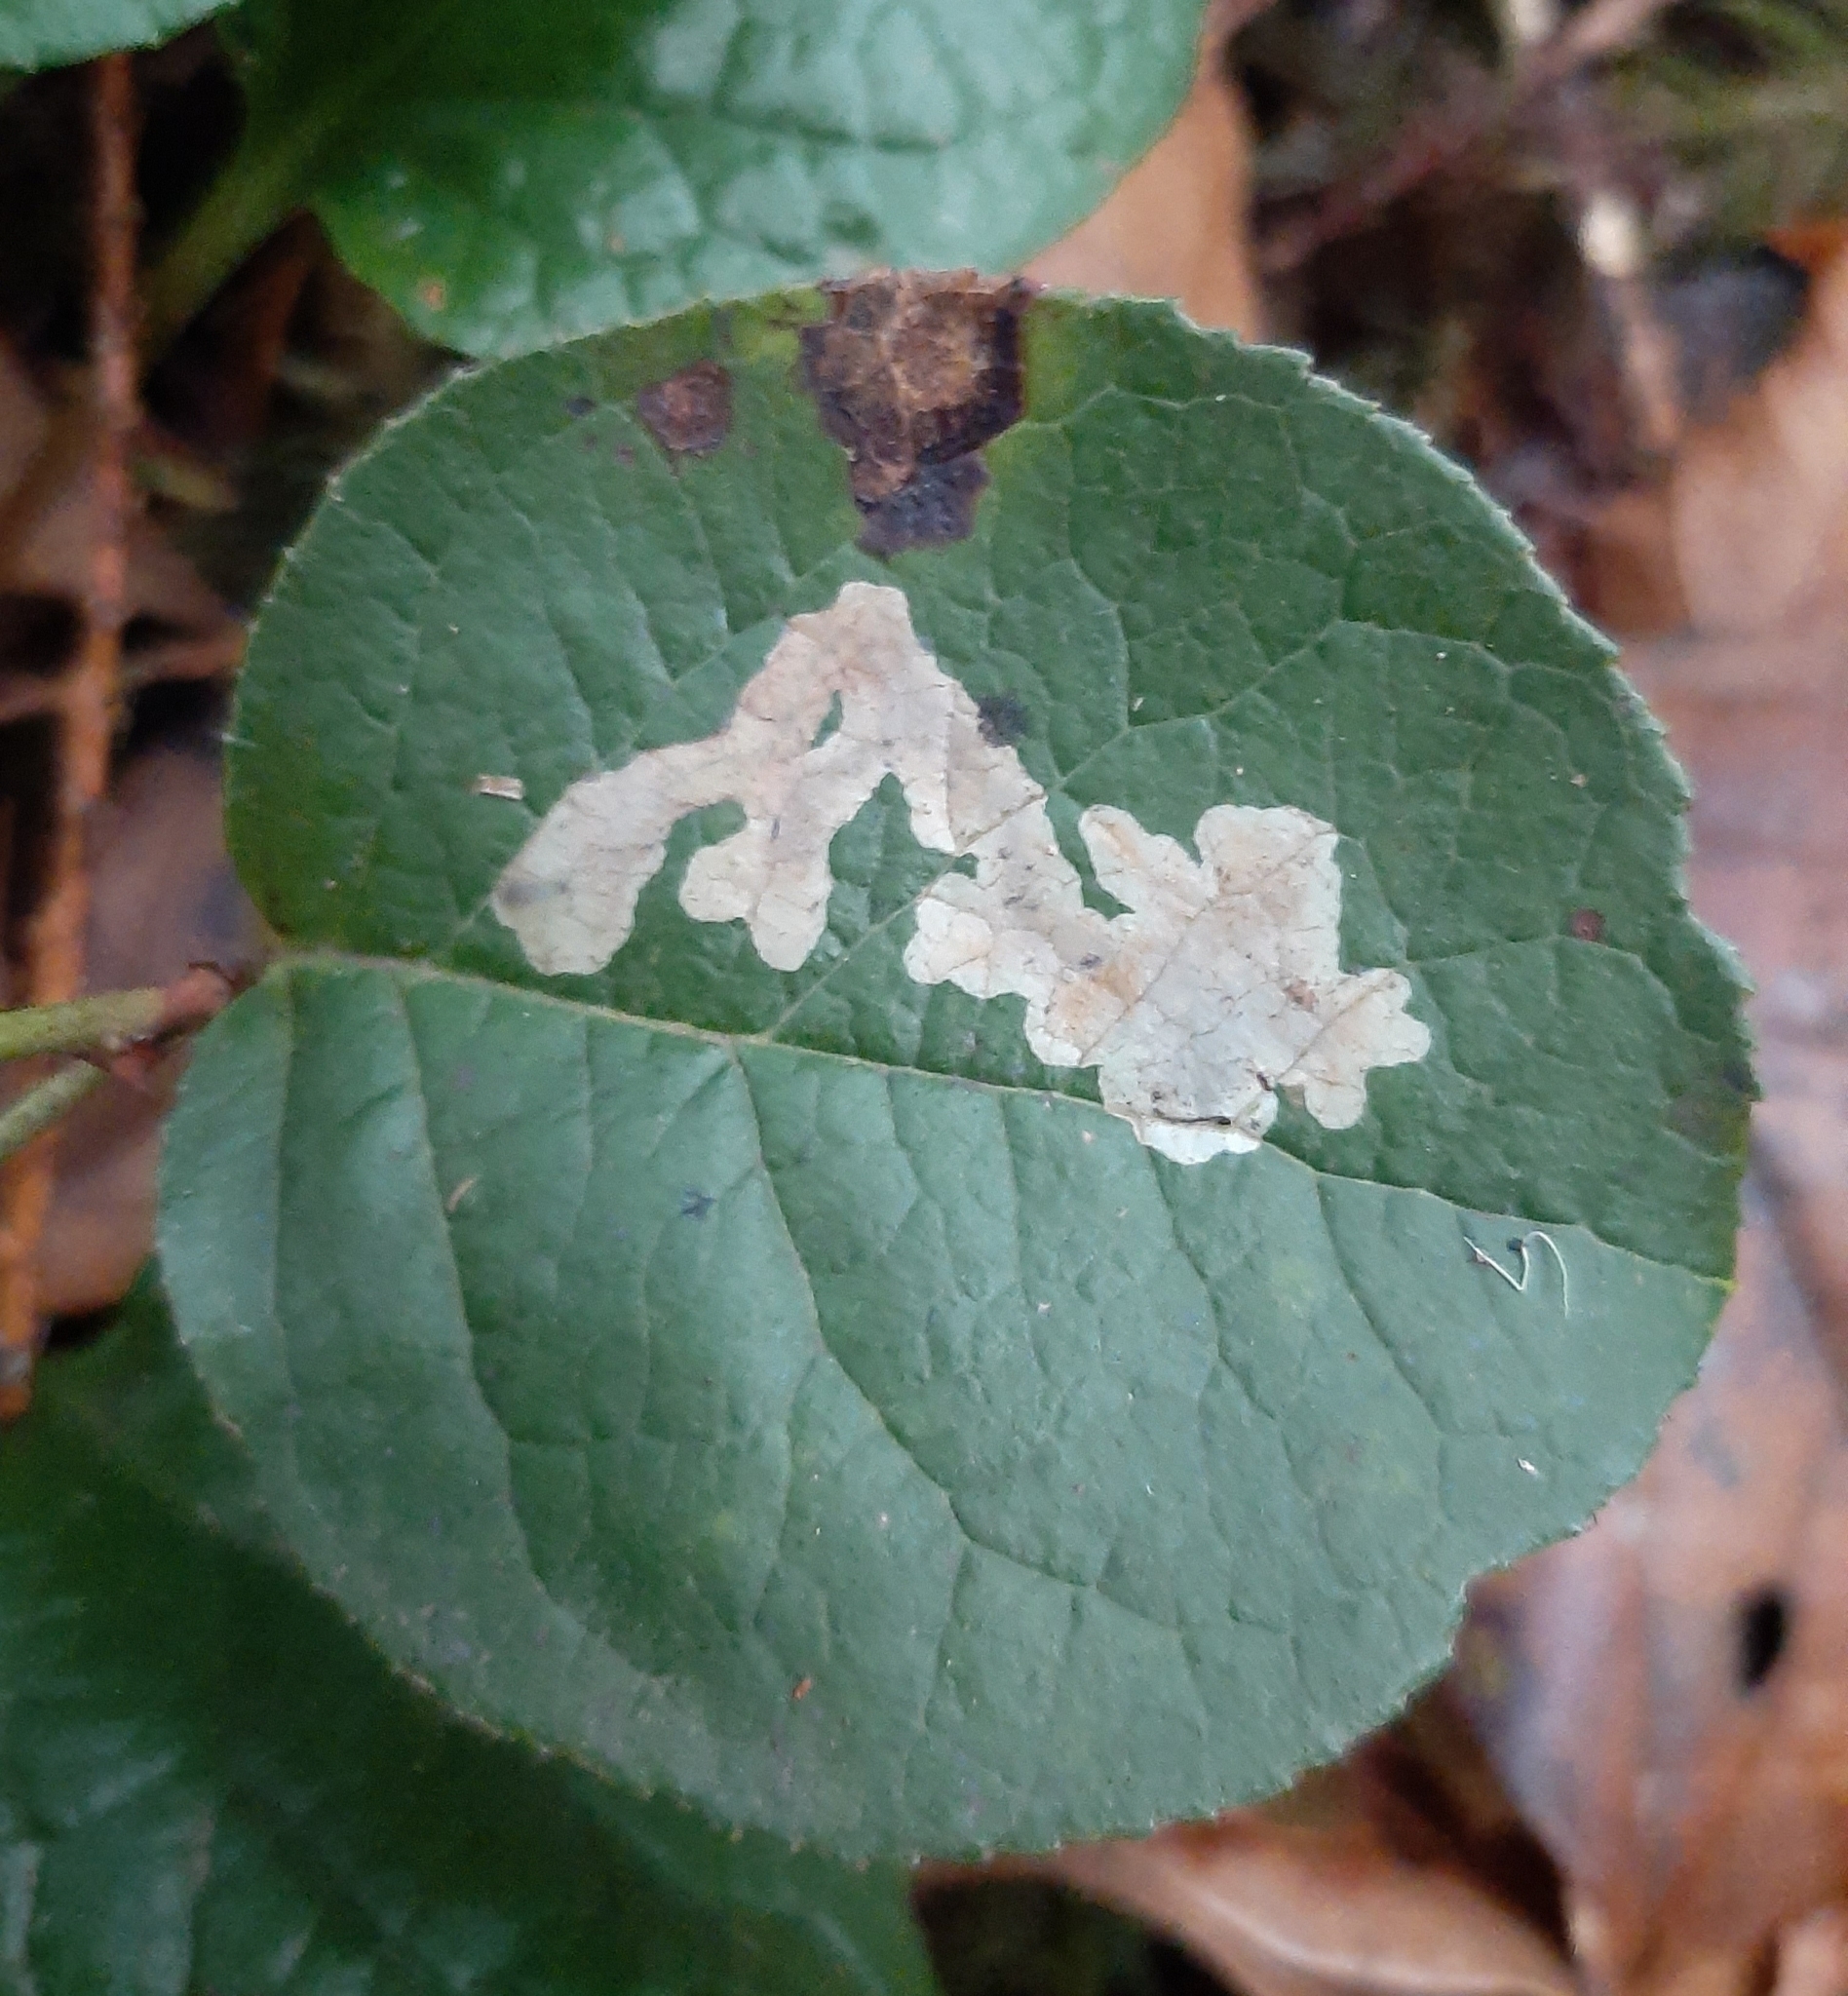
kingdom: Animalia
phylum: Arthropoda
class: Insecta
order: Lepidoptera
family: Gracillariidae
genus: Cameraria
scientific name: Cameraria gaultheriella
